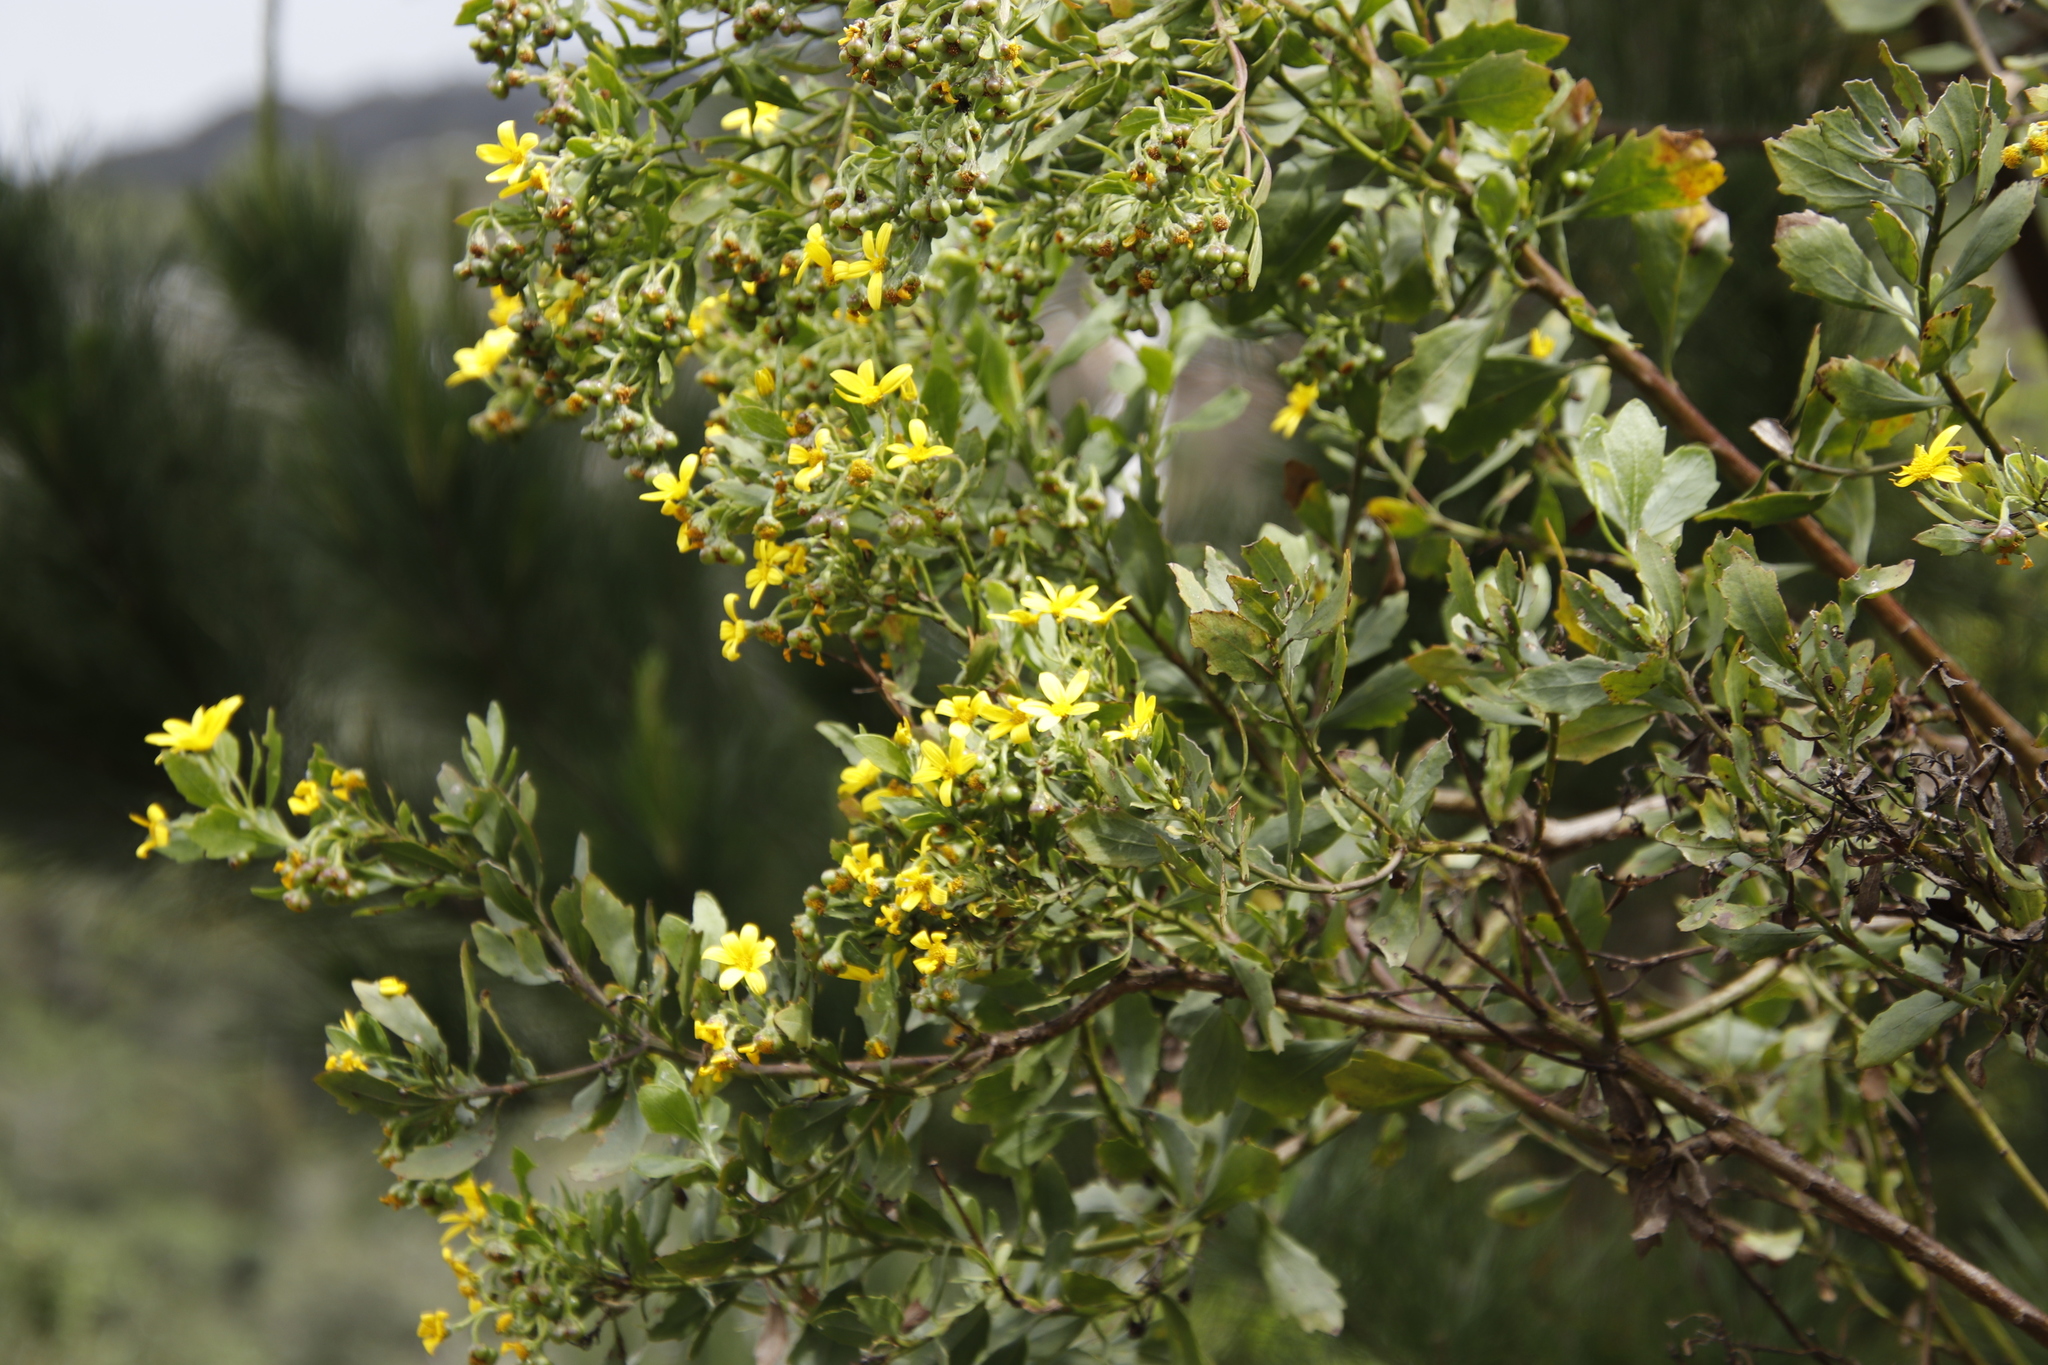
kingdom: Plantae
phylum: Tracheophyta
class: Magnoliopsida
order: Asterales
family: Asteraceae
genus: Osteospermum
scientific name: Osteospermum moniliferum
